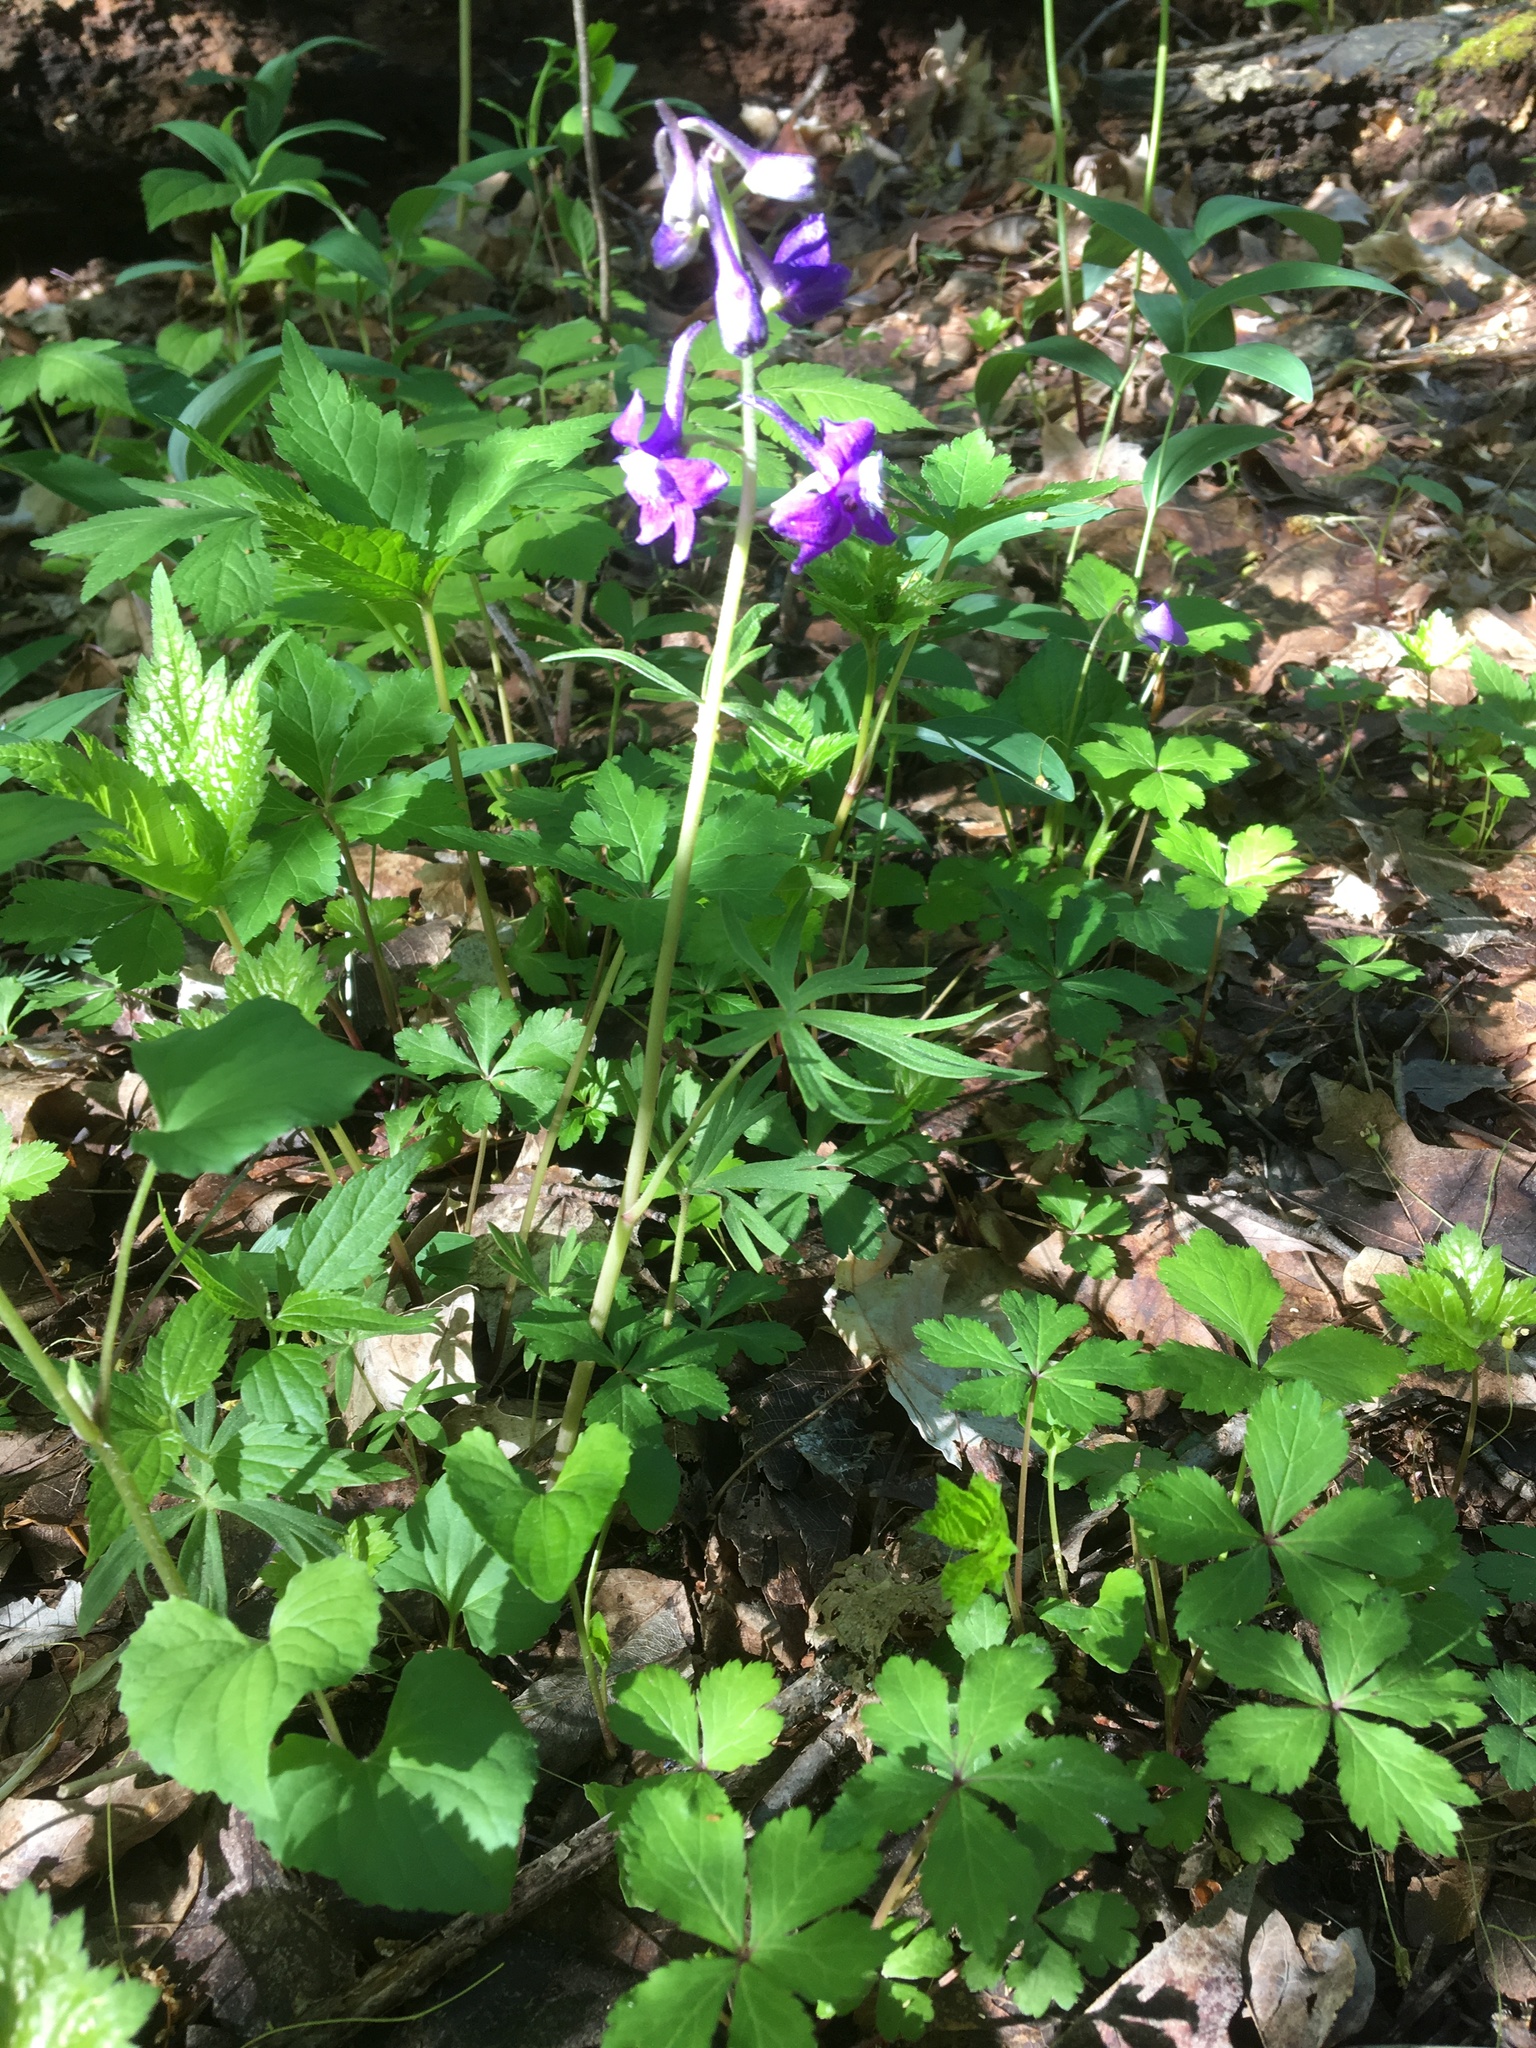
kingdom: Plantae
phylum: Tracheophyta
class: Magnoliopsida
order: Ranunculales
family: Ranunculaceae
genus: Delphinium
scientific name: Delphinium tricorne
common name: Dwarf larkspur
